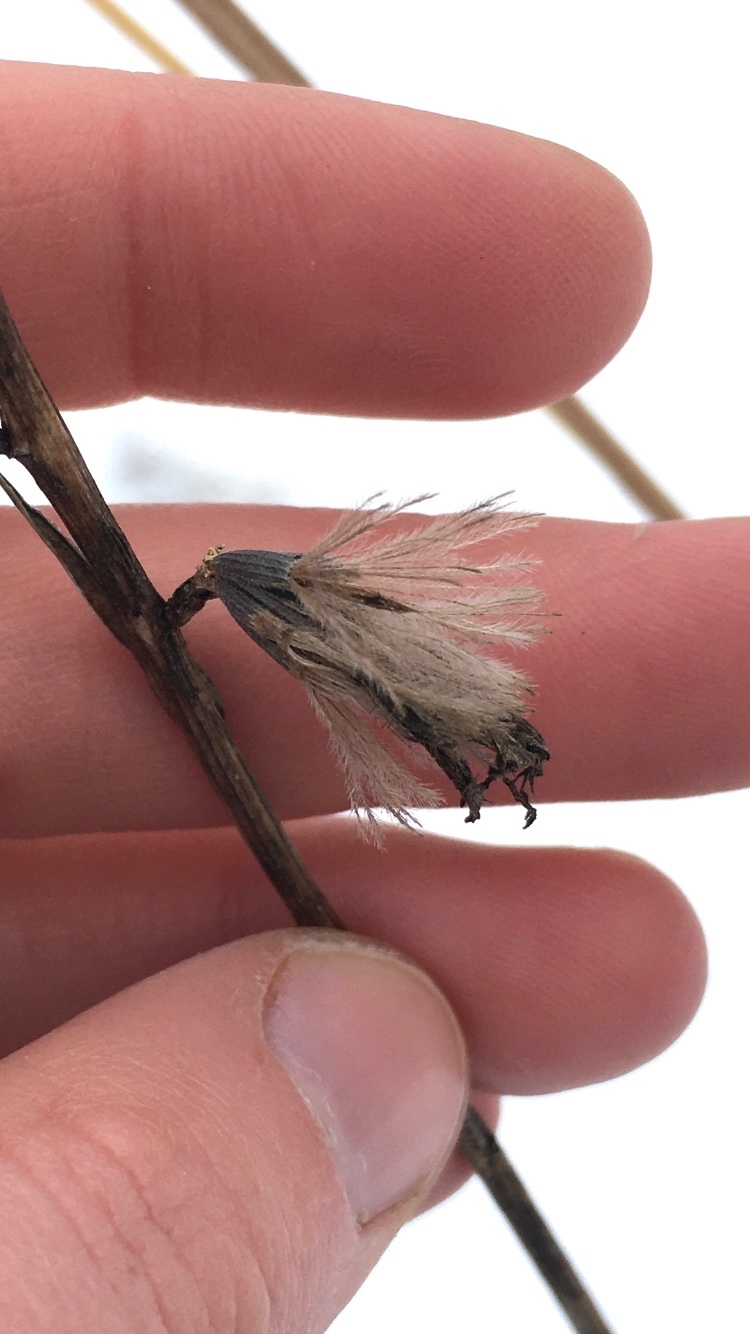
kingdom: Plantae
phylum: Tracheophyta
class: Magnoliopsida
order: Asterales
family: Asteraceae
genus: Liatris
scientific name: Liatris cylindracea
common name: Few-head blazingstar
